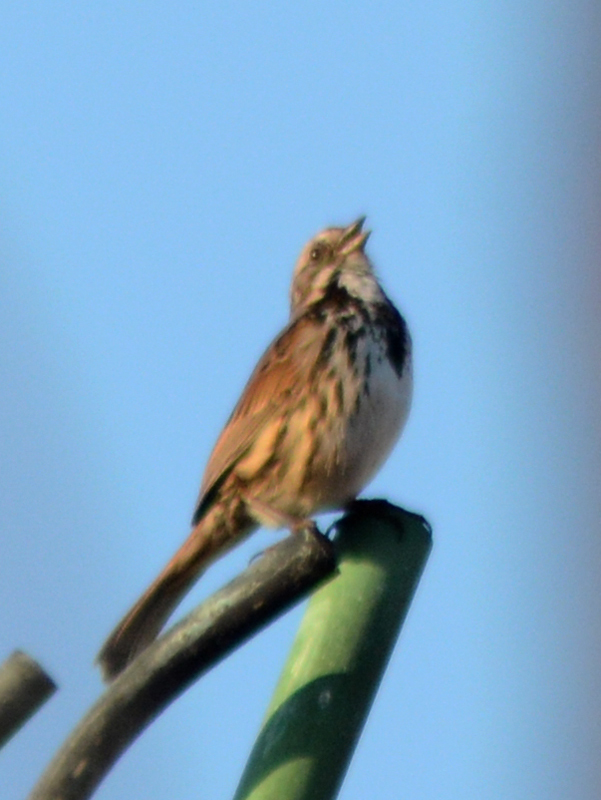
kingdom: Animalia
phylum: Chordata
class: Aves
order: Passeriformes
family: Passerellidae
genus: Melospiza
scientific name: Melospiza melodia
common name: Song sparrow
